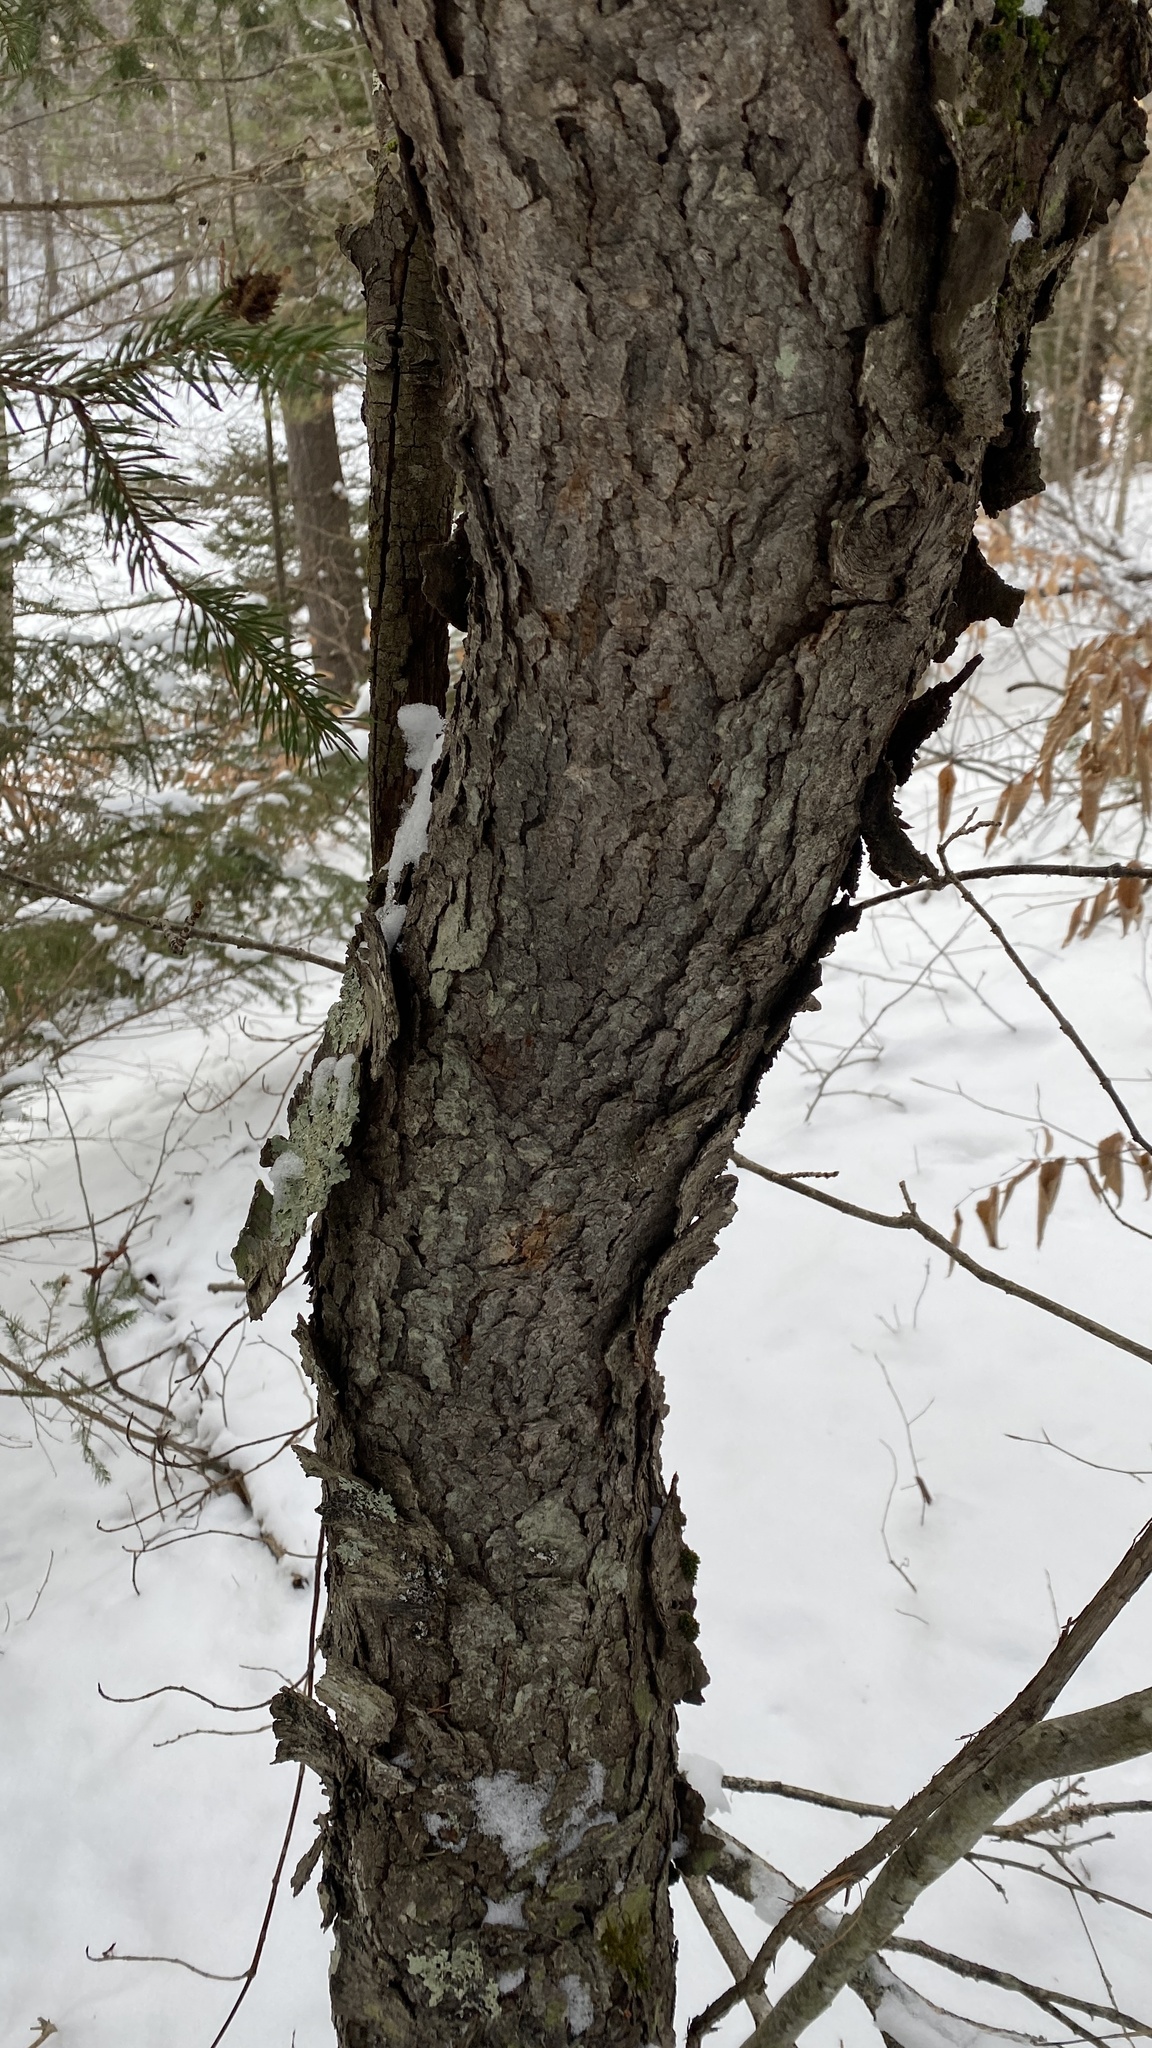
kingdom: Plantae
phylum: Tracheophyta
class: Magnoliopsida
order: Rosales
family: Rosaceae
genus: Prunus
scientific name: Prunus serotina
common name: Black cherry
